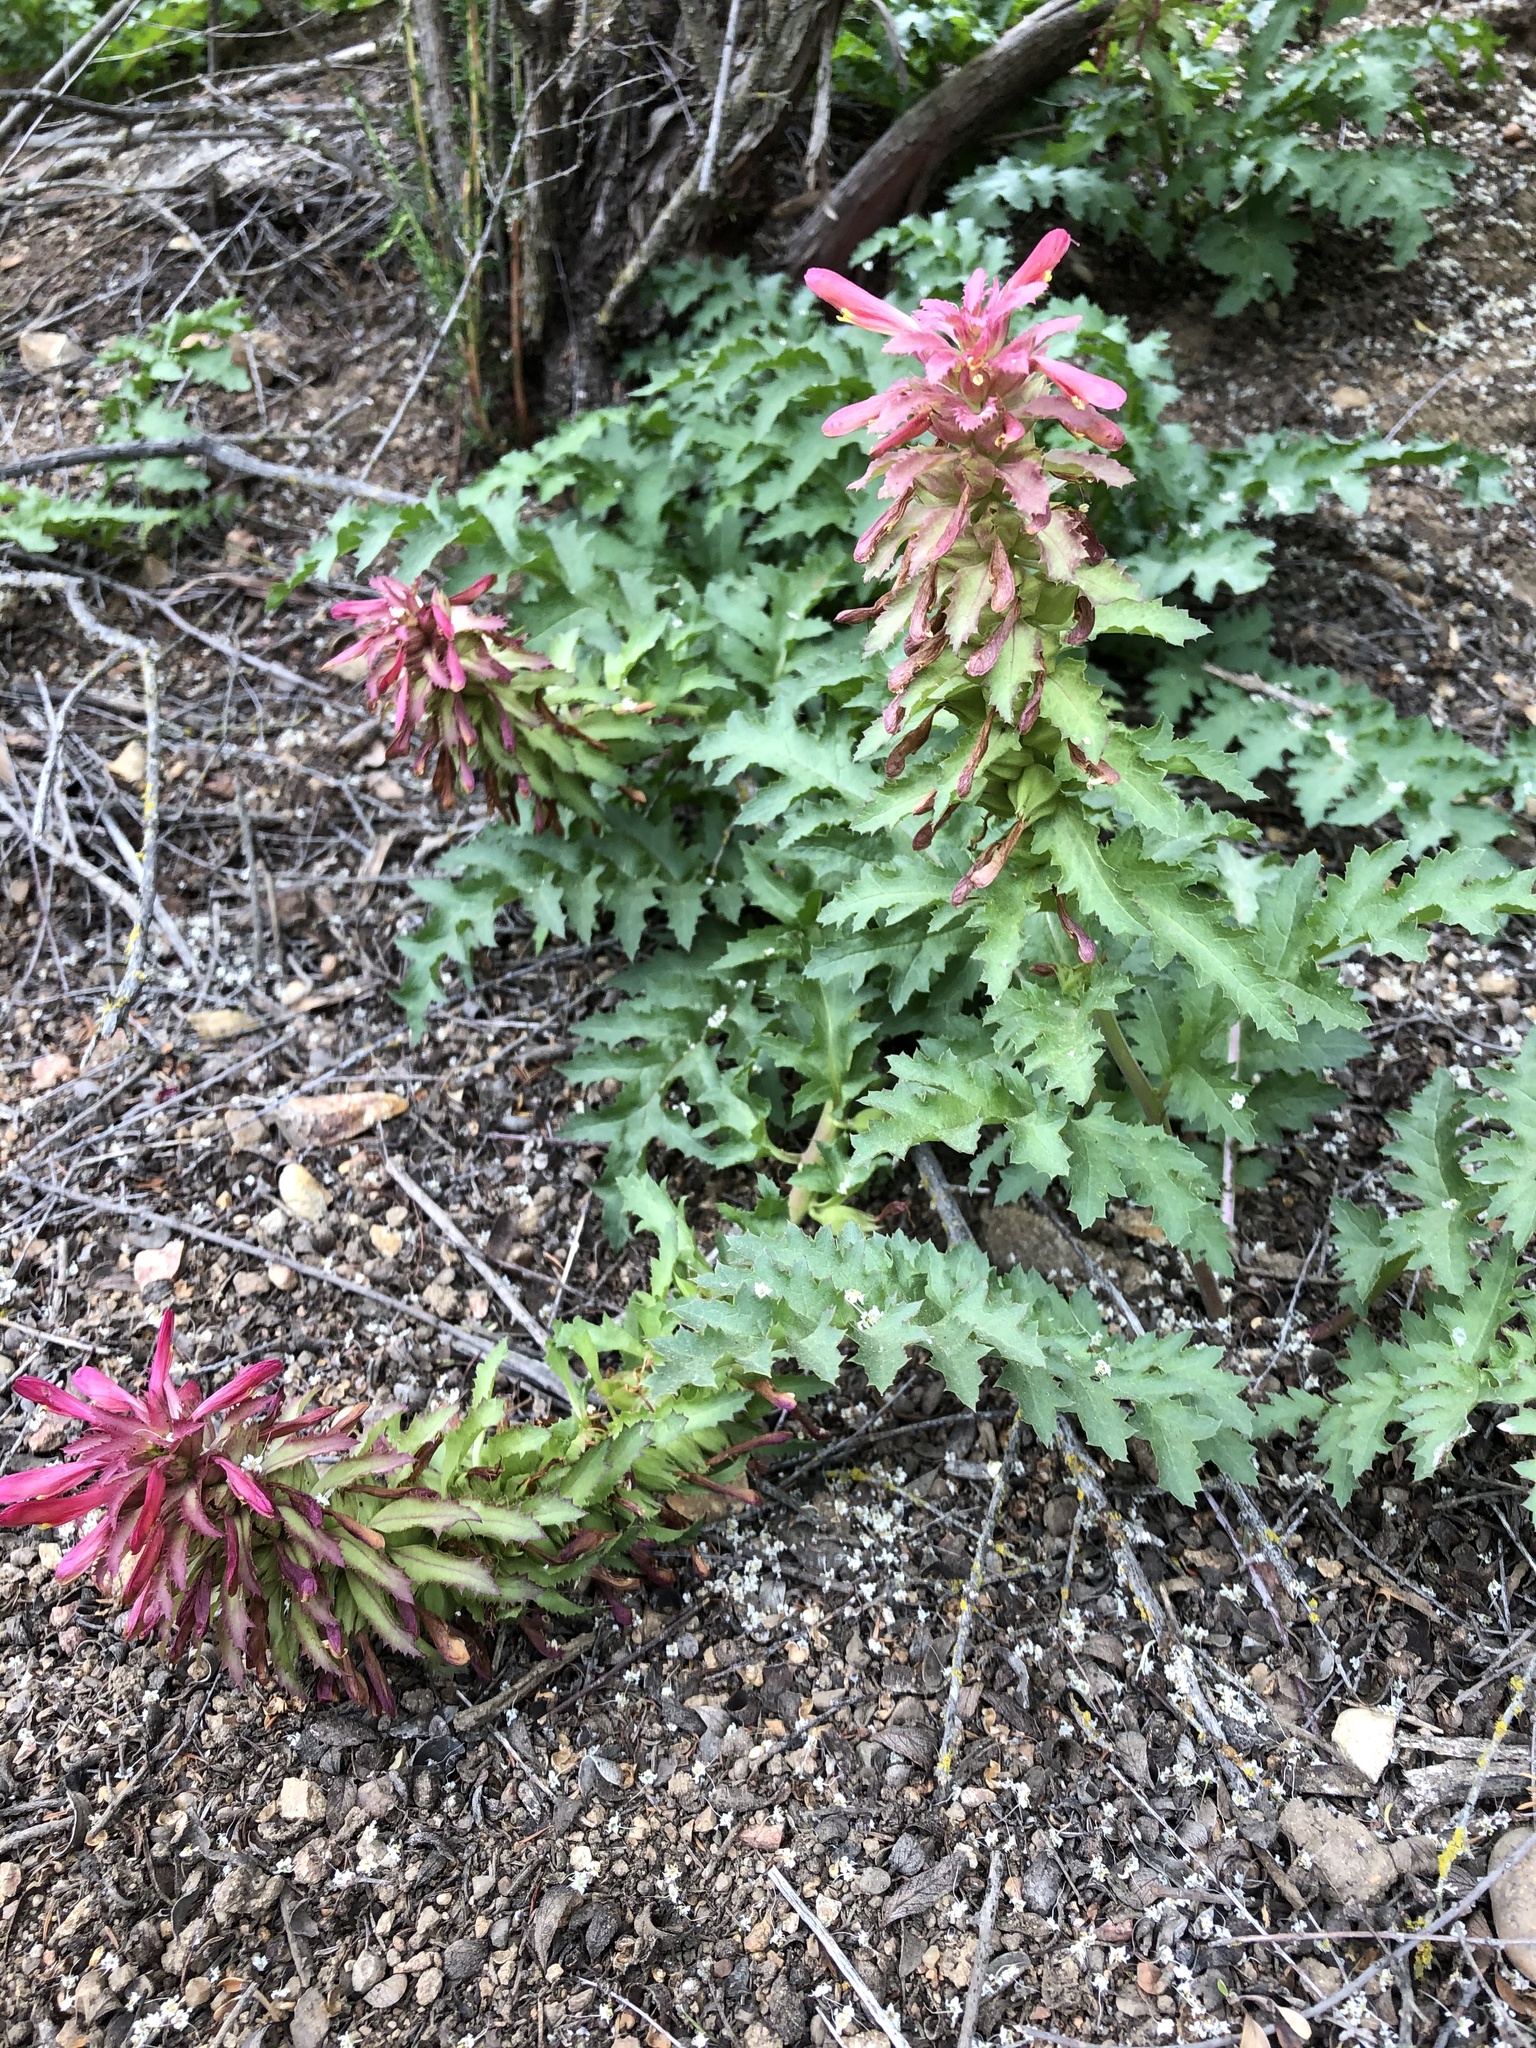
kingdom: Plantae
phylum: Tracheophyta
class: Magnoliopsida
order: Lamiales
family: Orobanchaceae
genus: Pedicularis
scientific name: Pedicularis densiflora
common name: Indian warrior
